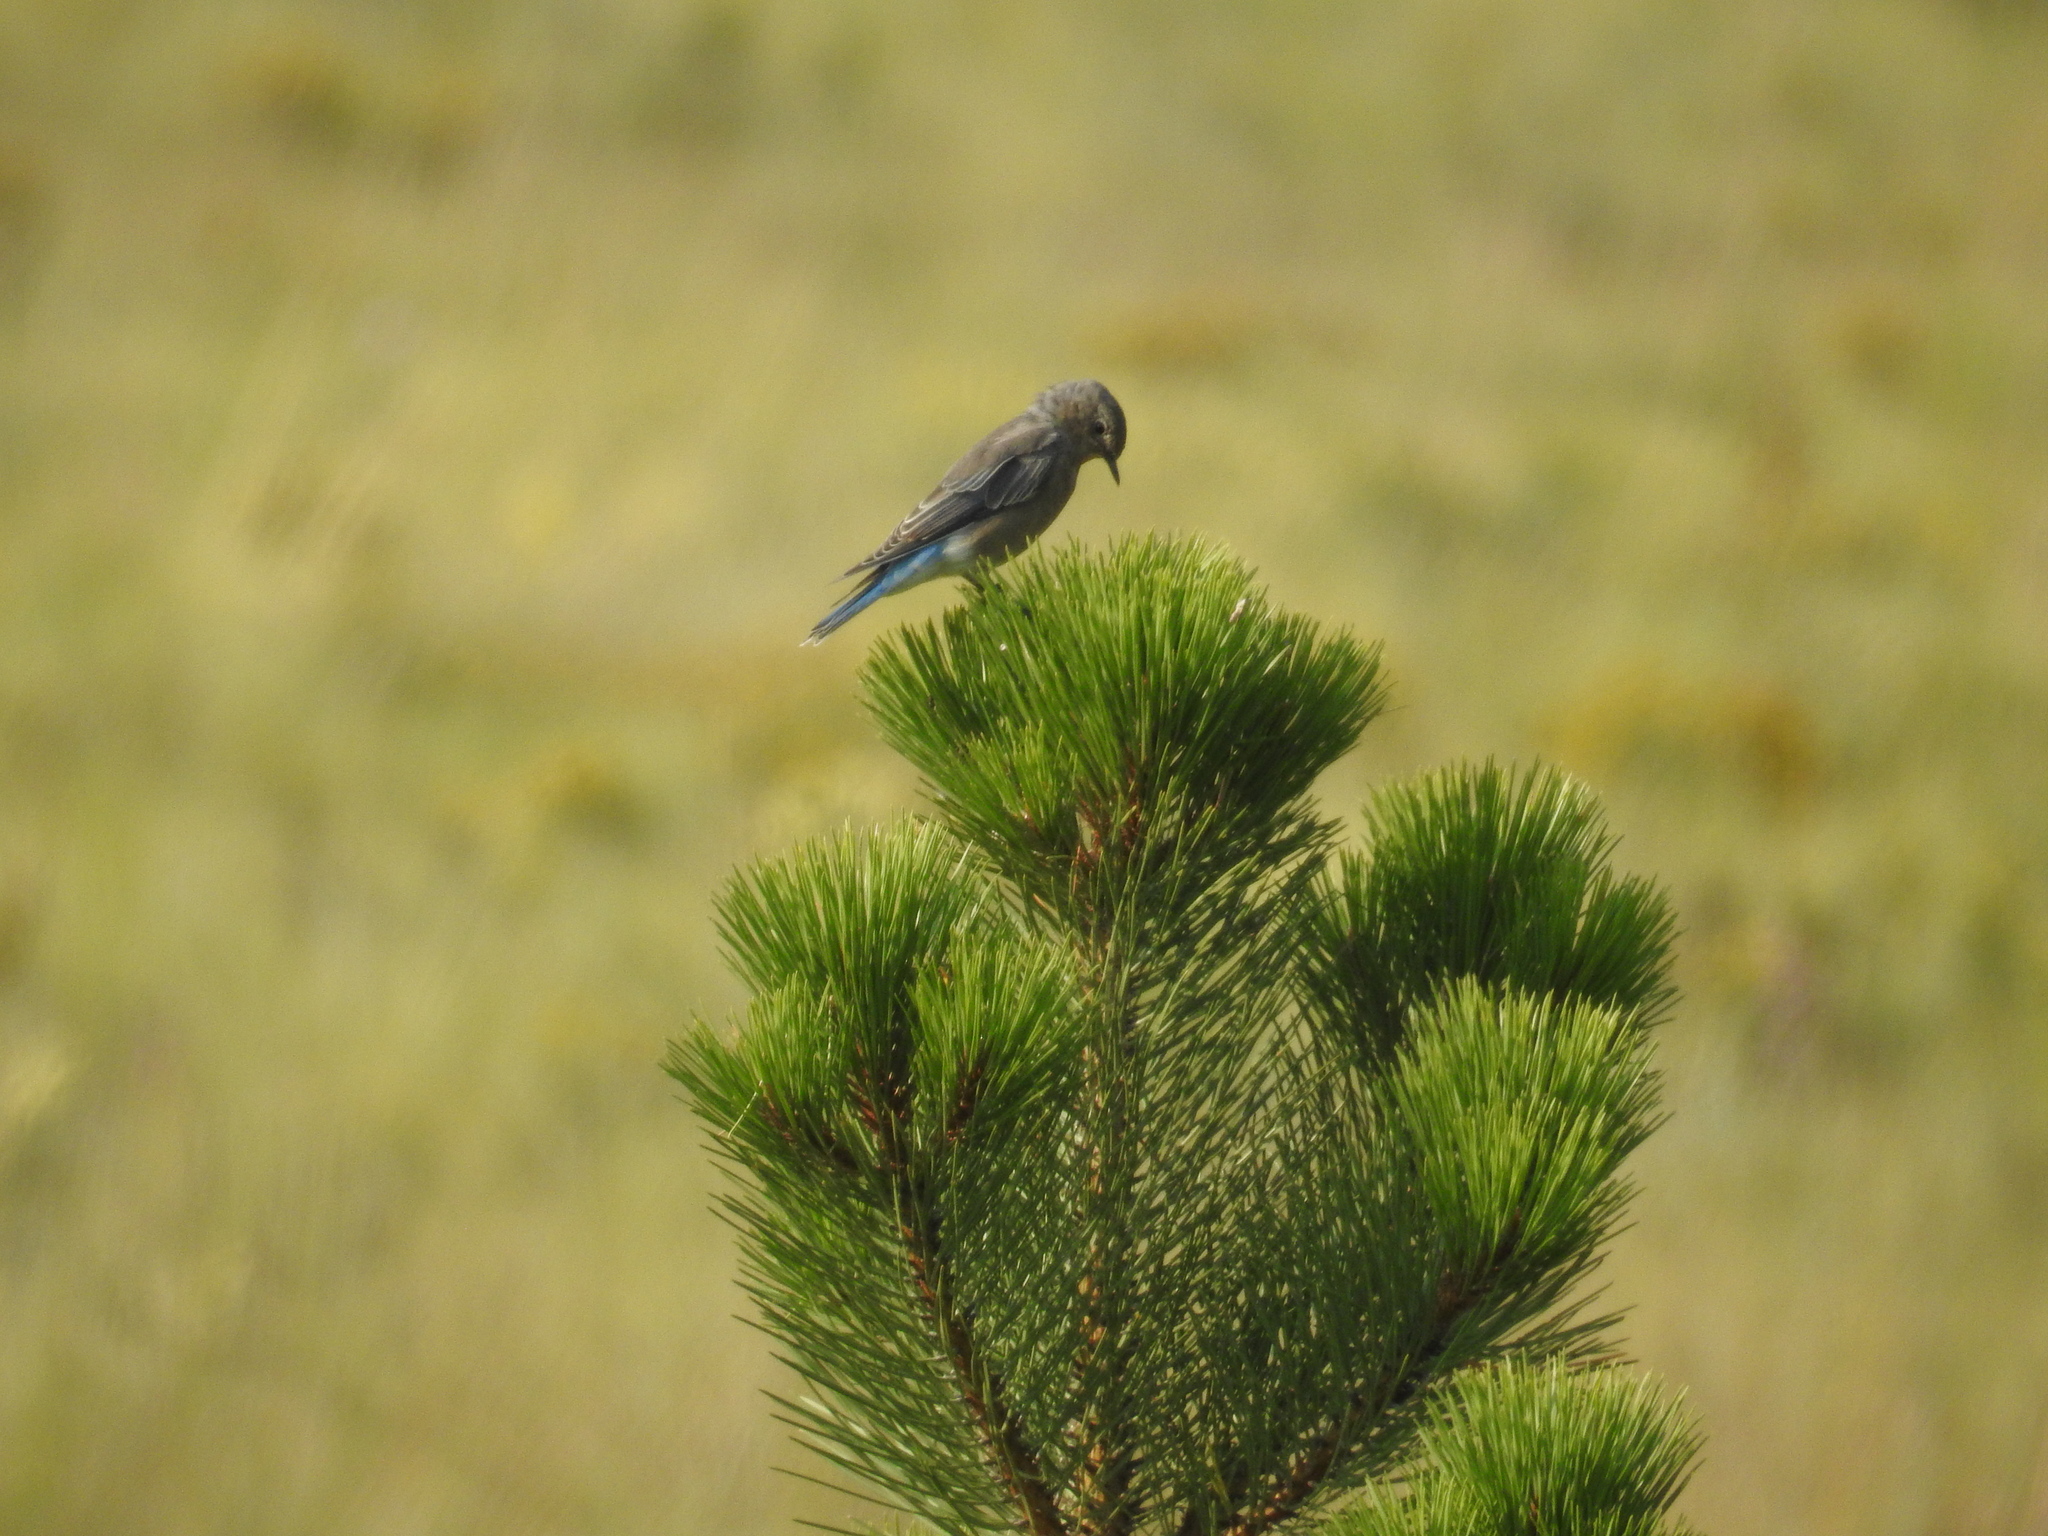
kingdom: Animalia
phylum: Chordata
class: Aves
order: Passeriformes
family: Turdidae
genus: Sialia
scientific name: Sialia currucoides
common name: Mountain bluebird
